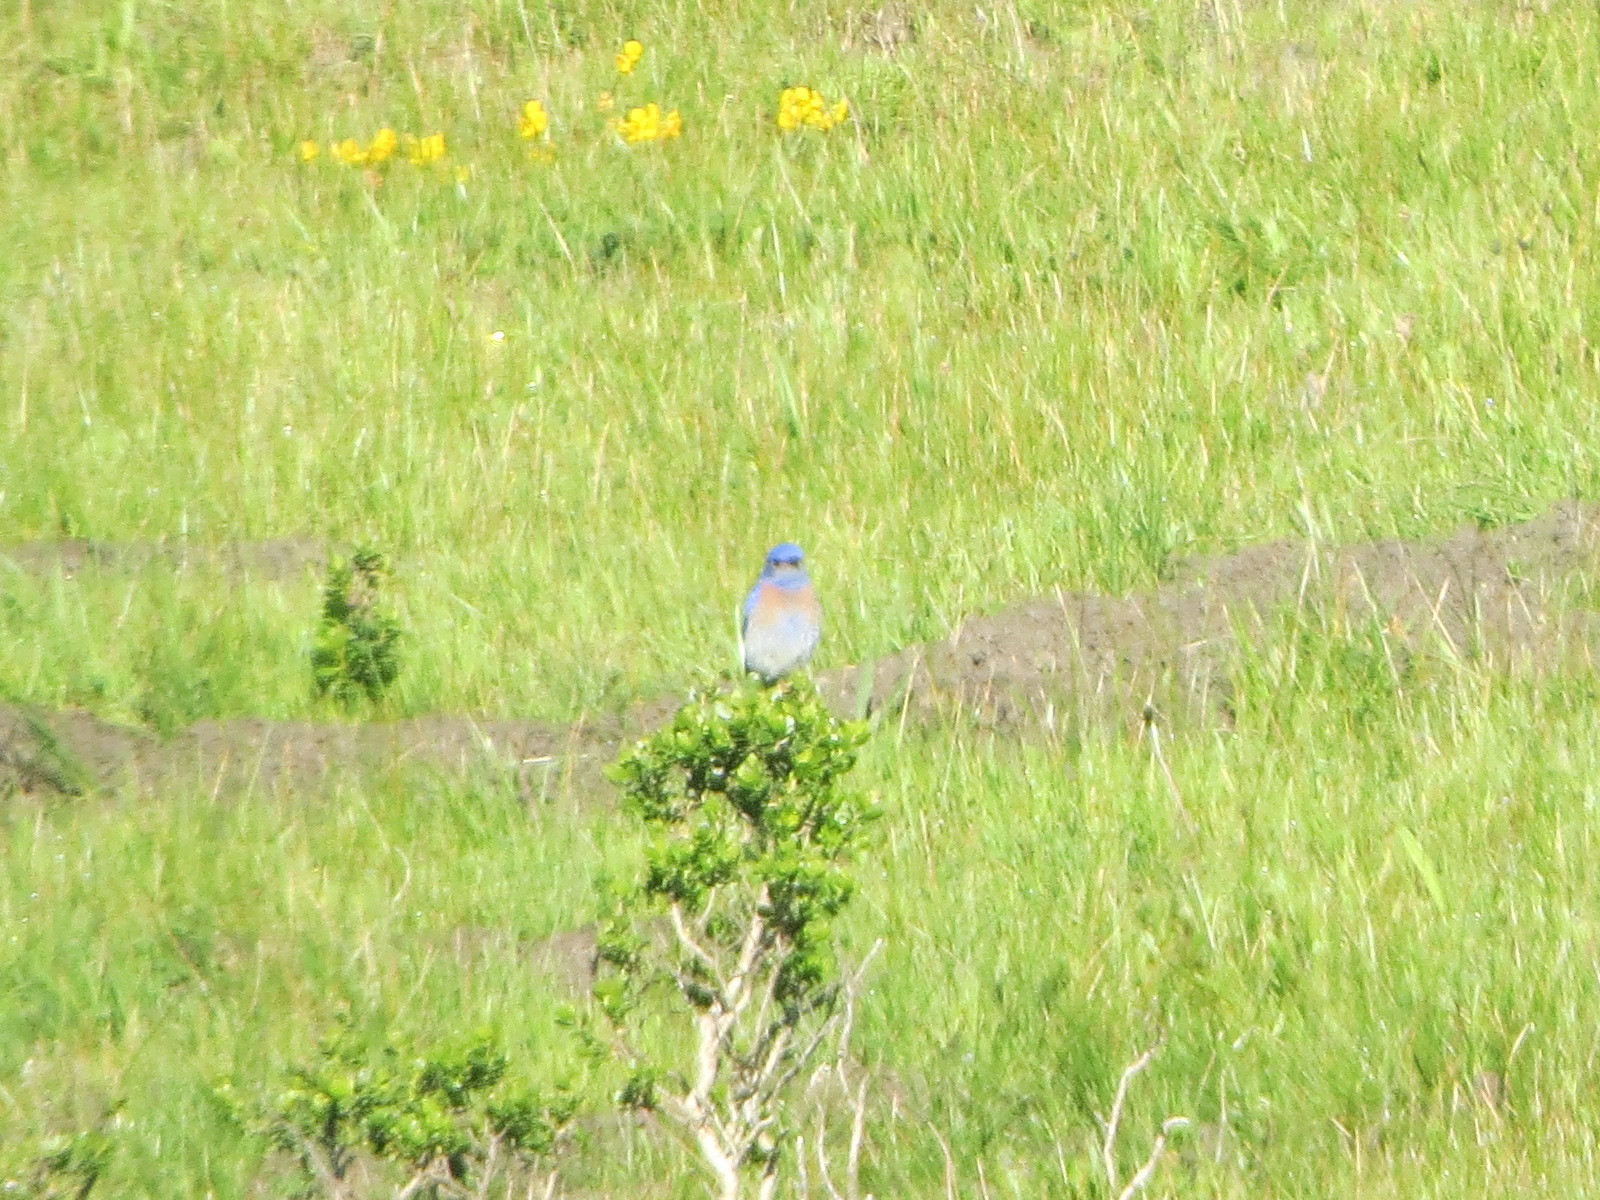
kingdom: Animalia
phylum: Chordata
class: Aves
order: Passeriformes
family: Turdidae
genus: Sialia
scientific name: Sialia mexicana
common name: Western bluebird
